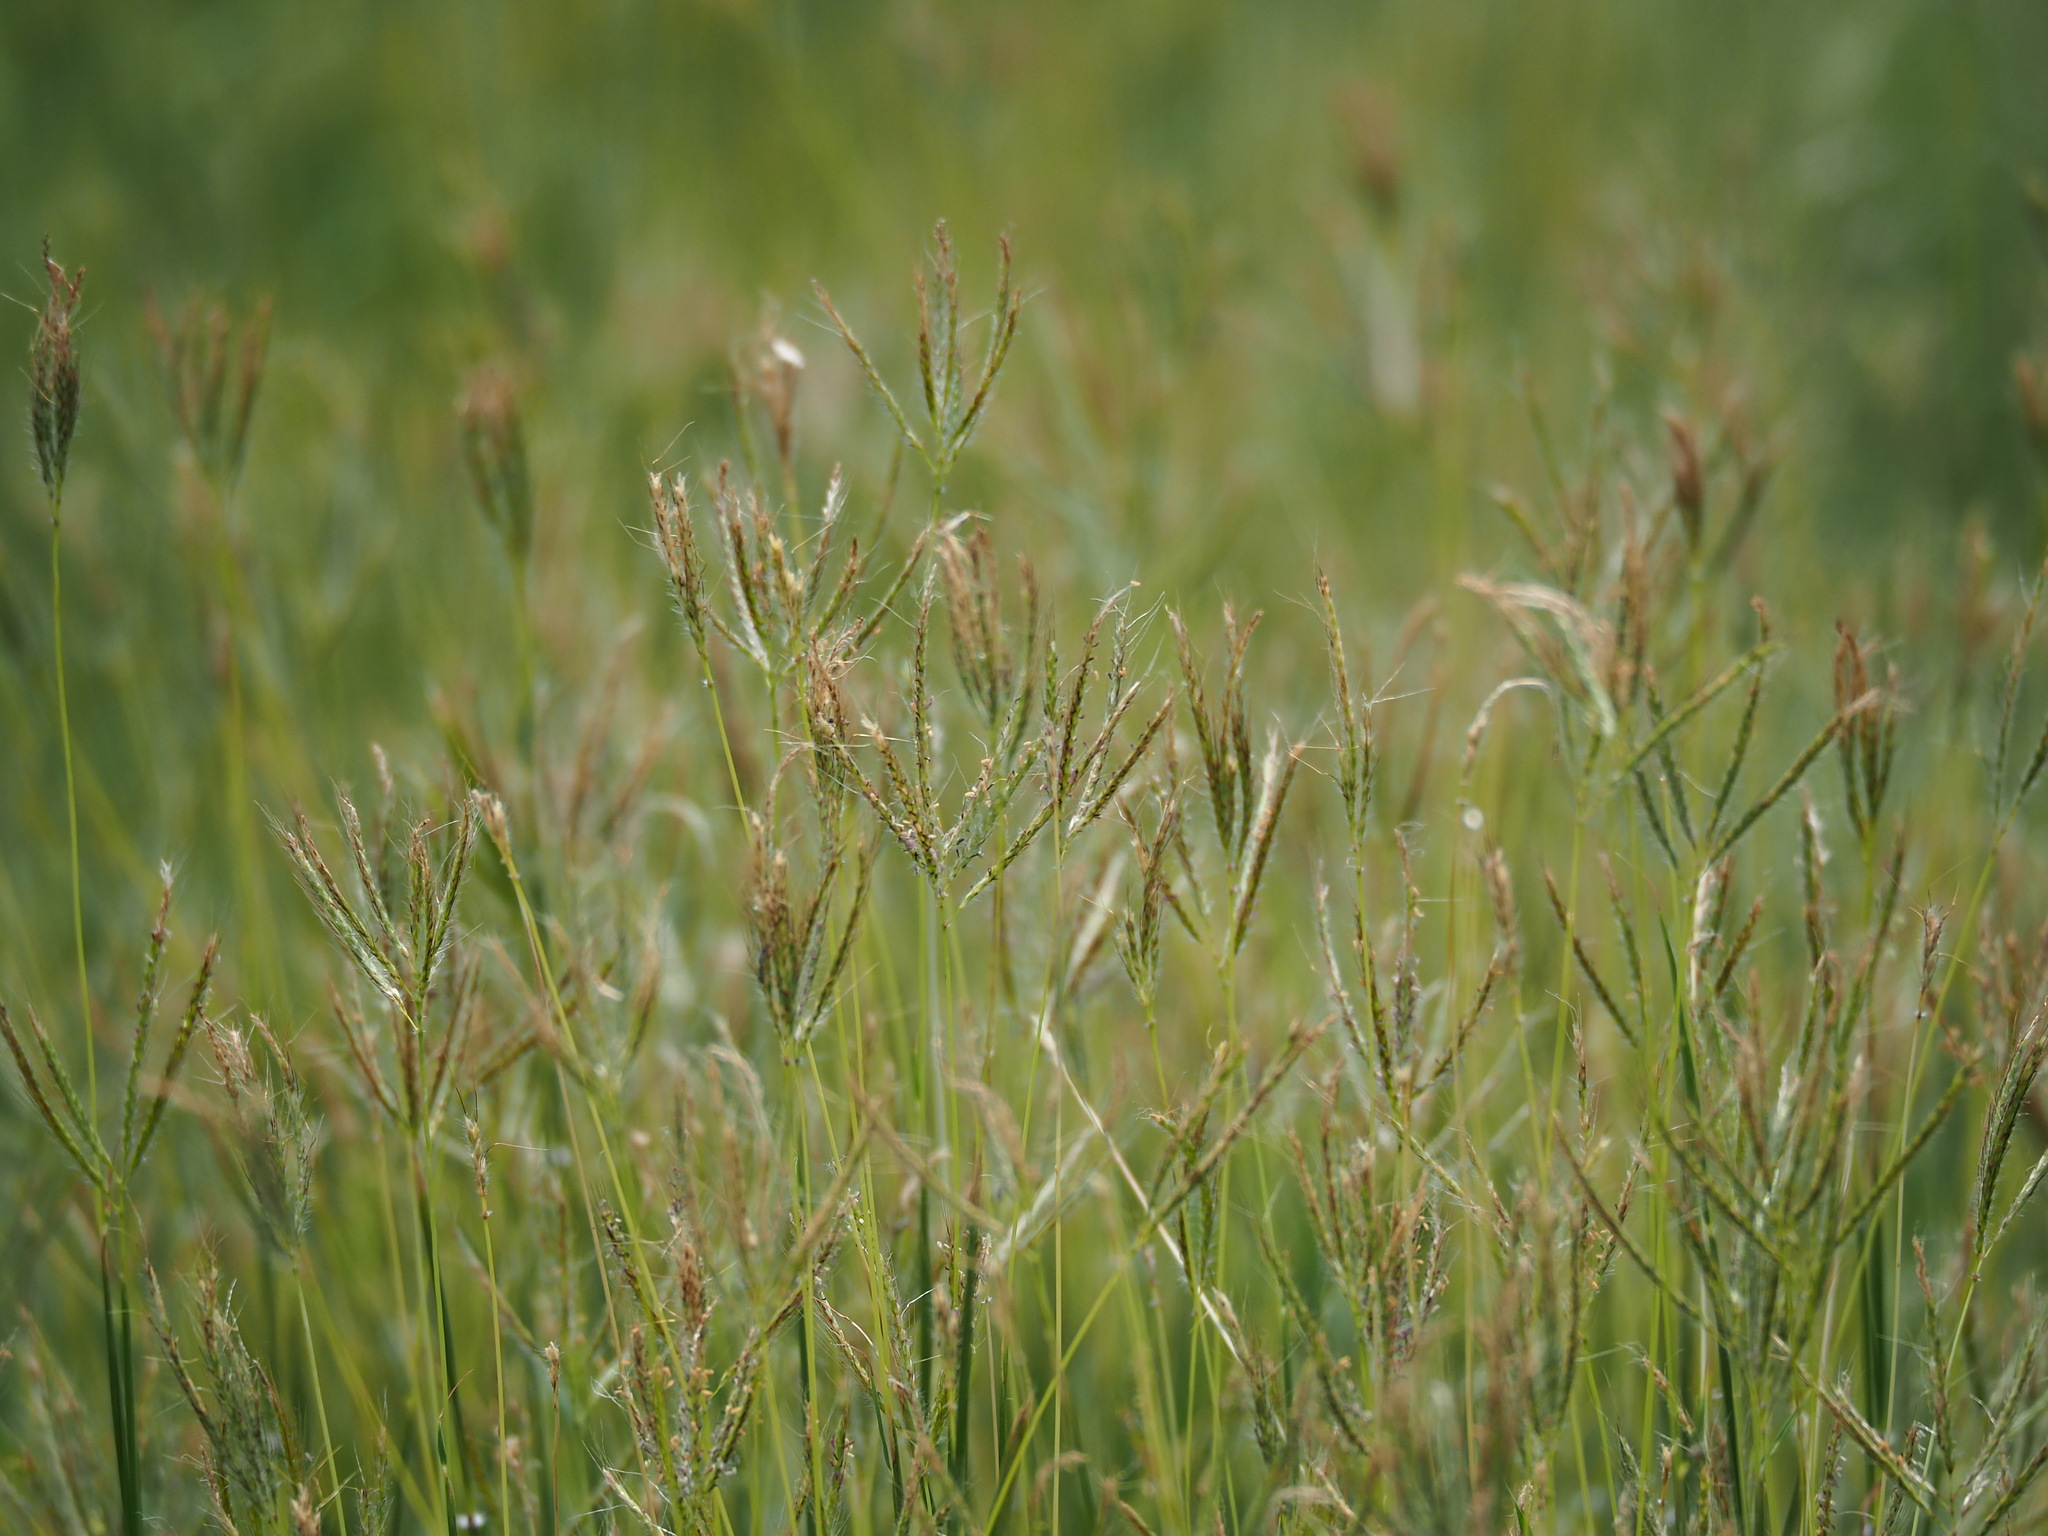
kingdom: Plantae
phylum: Tracheophyta
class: Liliopsida
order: Poales
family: Poaceae
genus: Dichanthium
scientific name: Dichanthium annulatum
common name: Kleberg's bluestem
